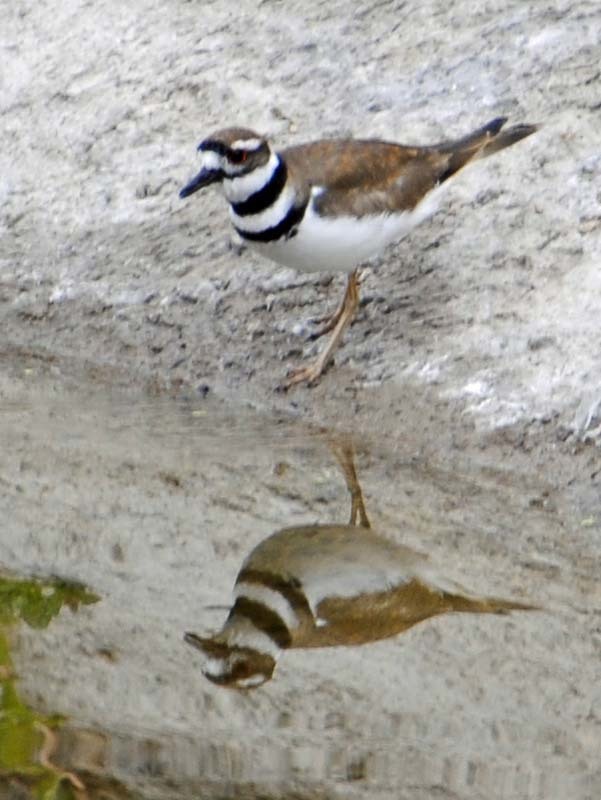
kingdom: Animalia
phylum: Chordata
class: Aves
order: Charadriiformes
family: Charadriidae
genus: Charadrius
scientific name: Charadrius vociferus
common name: Killdeer
